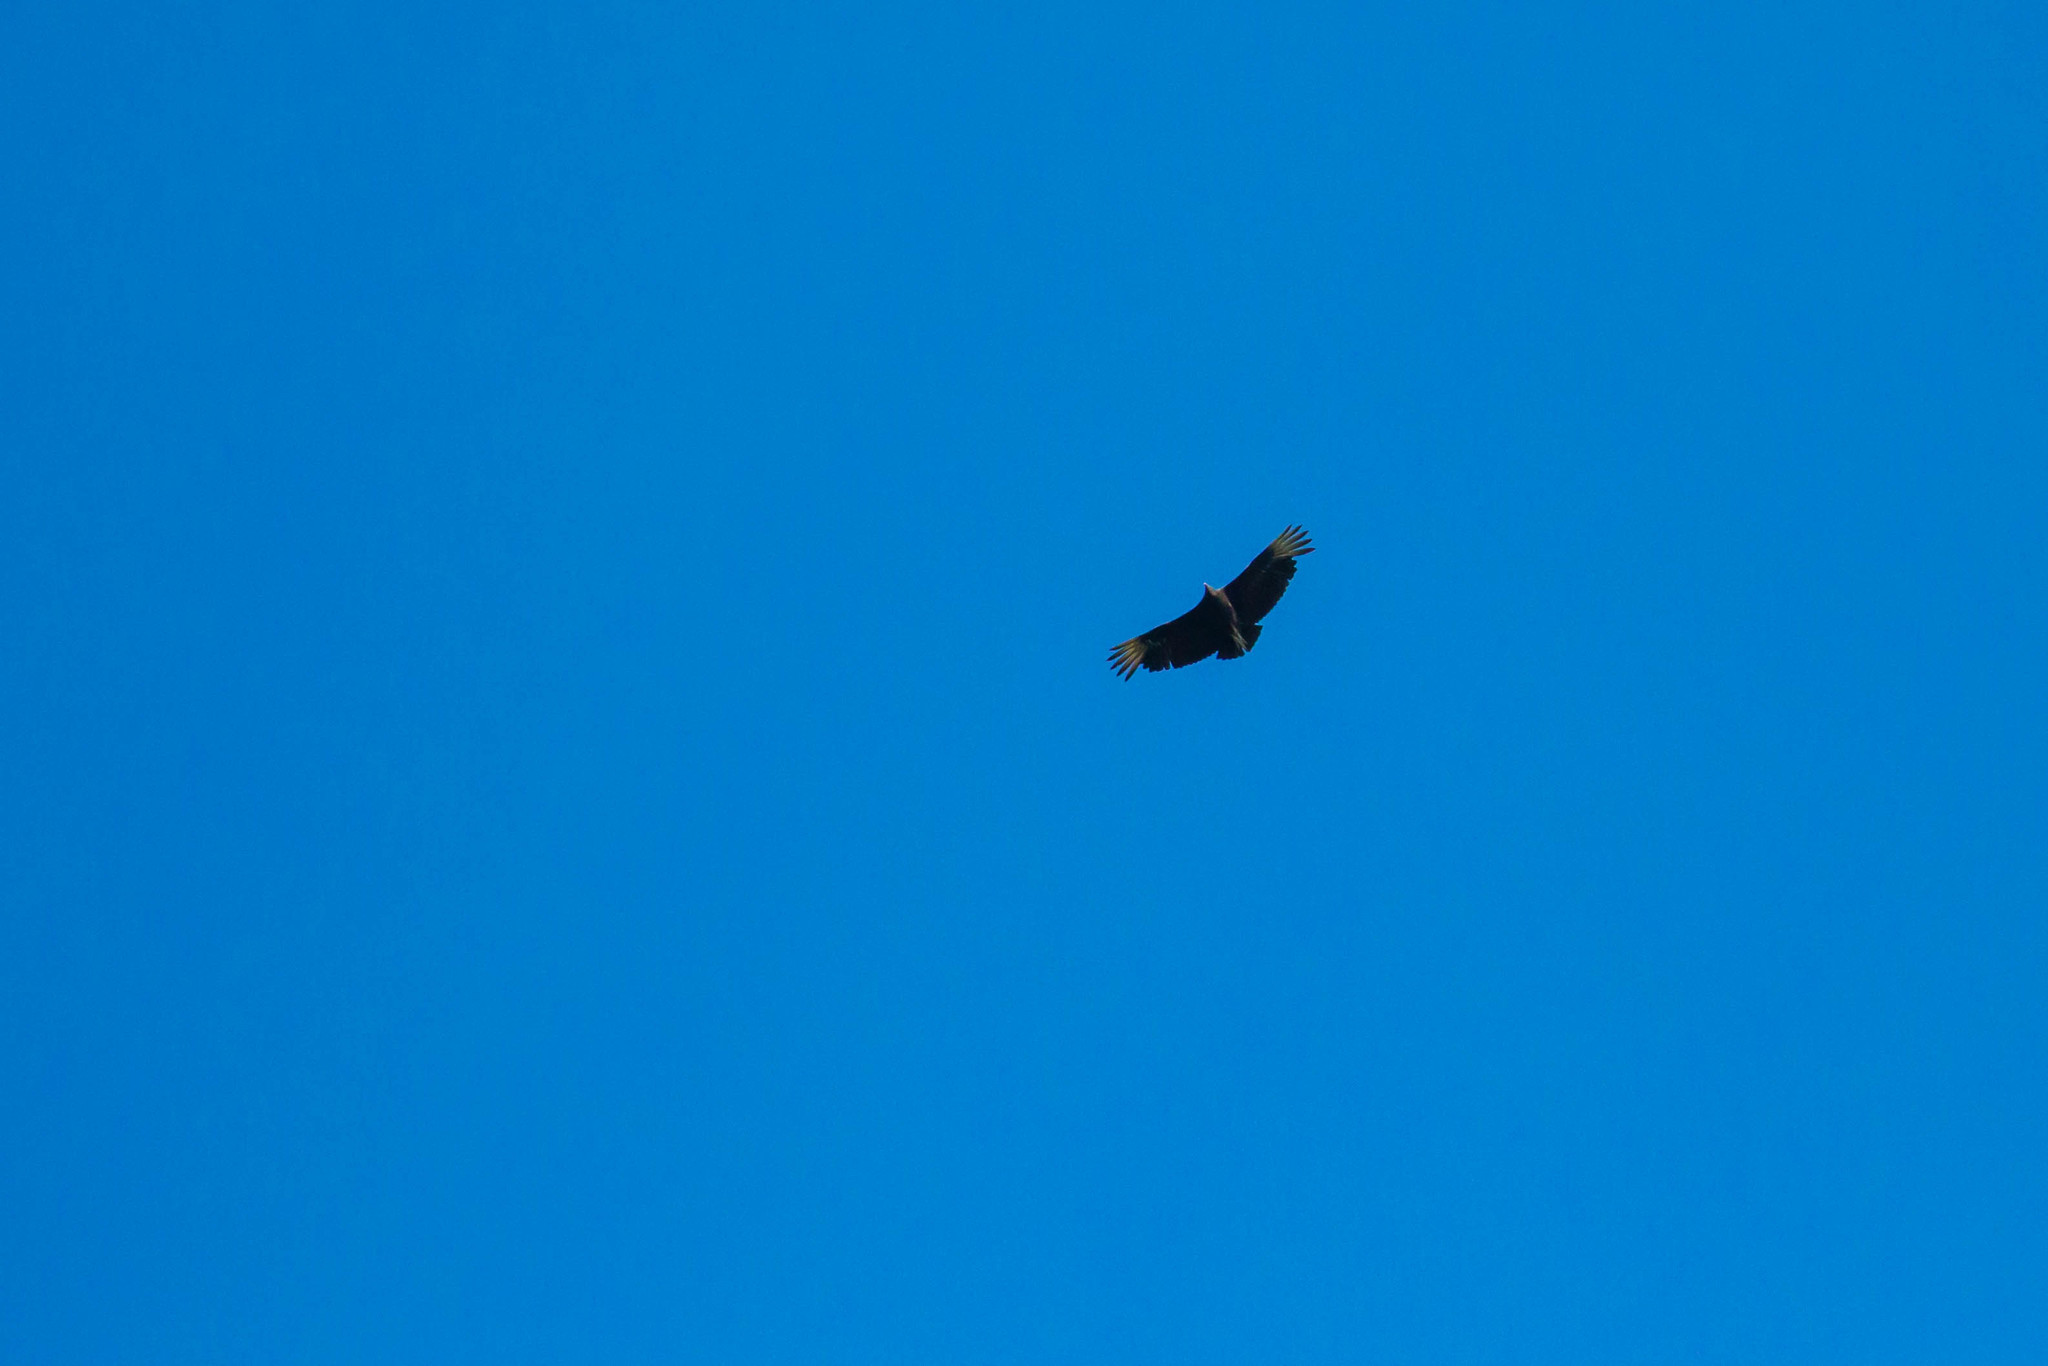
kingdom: Animalia
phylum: Chordata
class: Aves
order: Accipitriformes
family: Cathartidae
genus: Coragyps
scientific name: Coragyps atratus
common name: Black vulture
